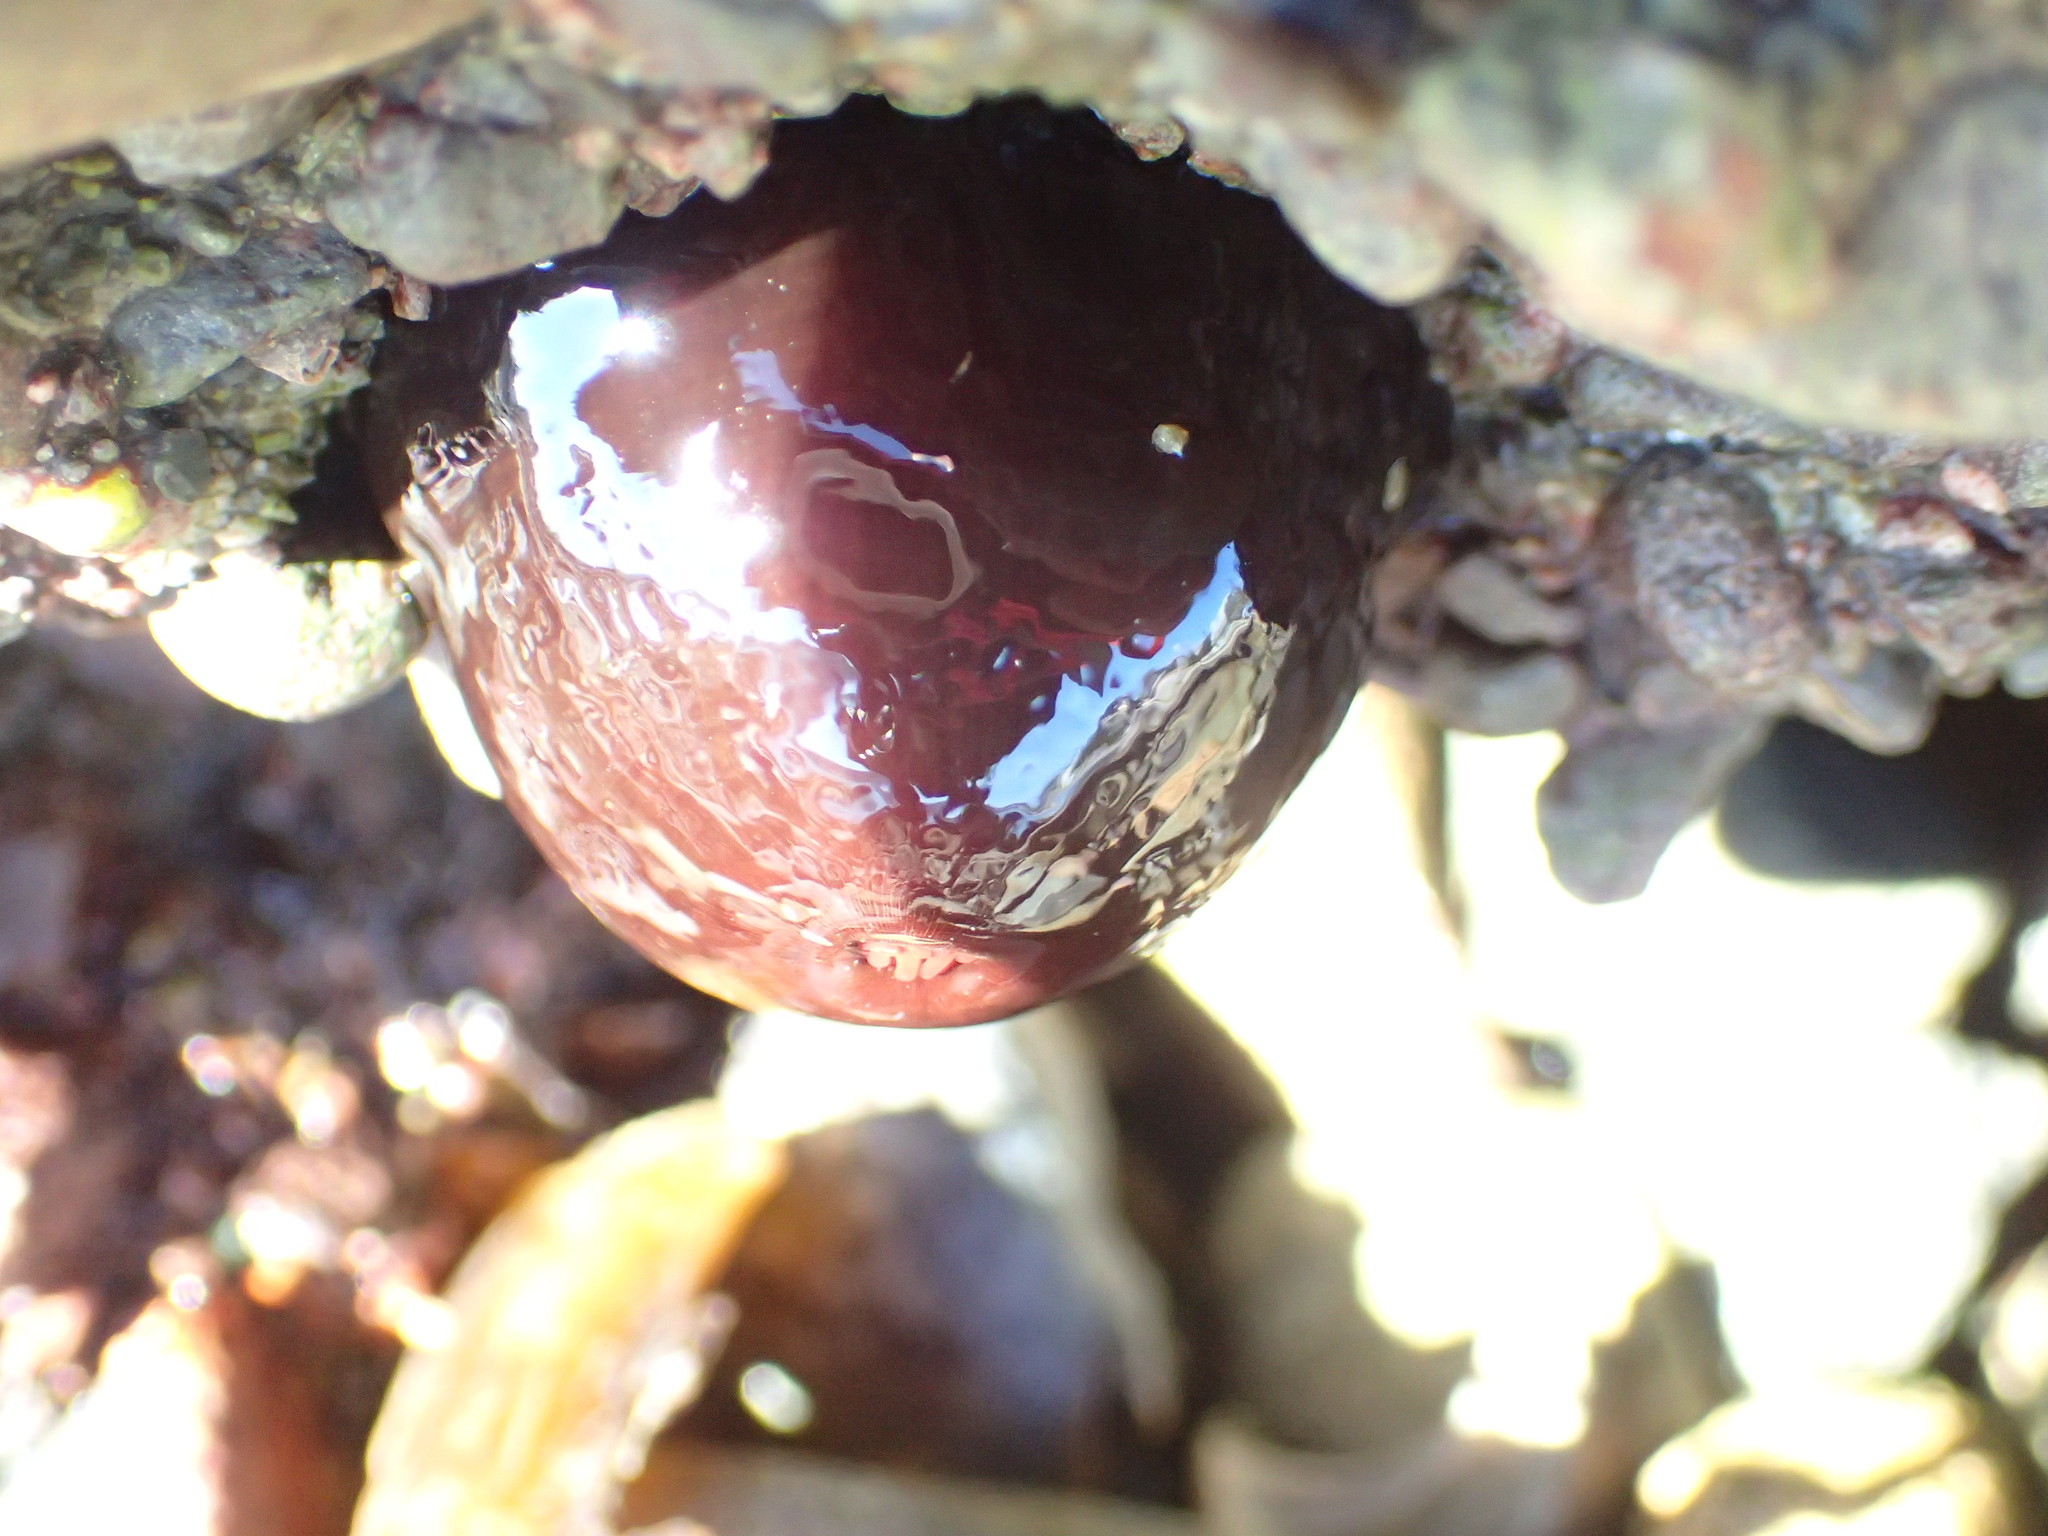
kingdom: Animalia
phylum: Cnidaria
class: Anthozoa
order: Actiniaria
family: Actiniidae
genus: Actinia
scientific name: Actinia tenebrosa
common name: Waratah anemone
